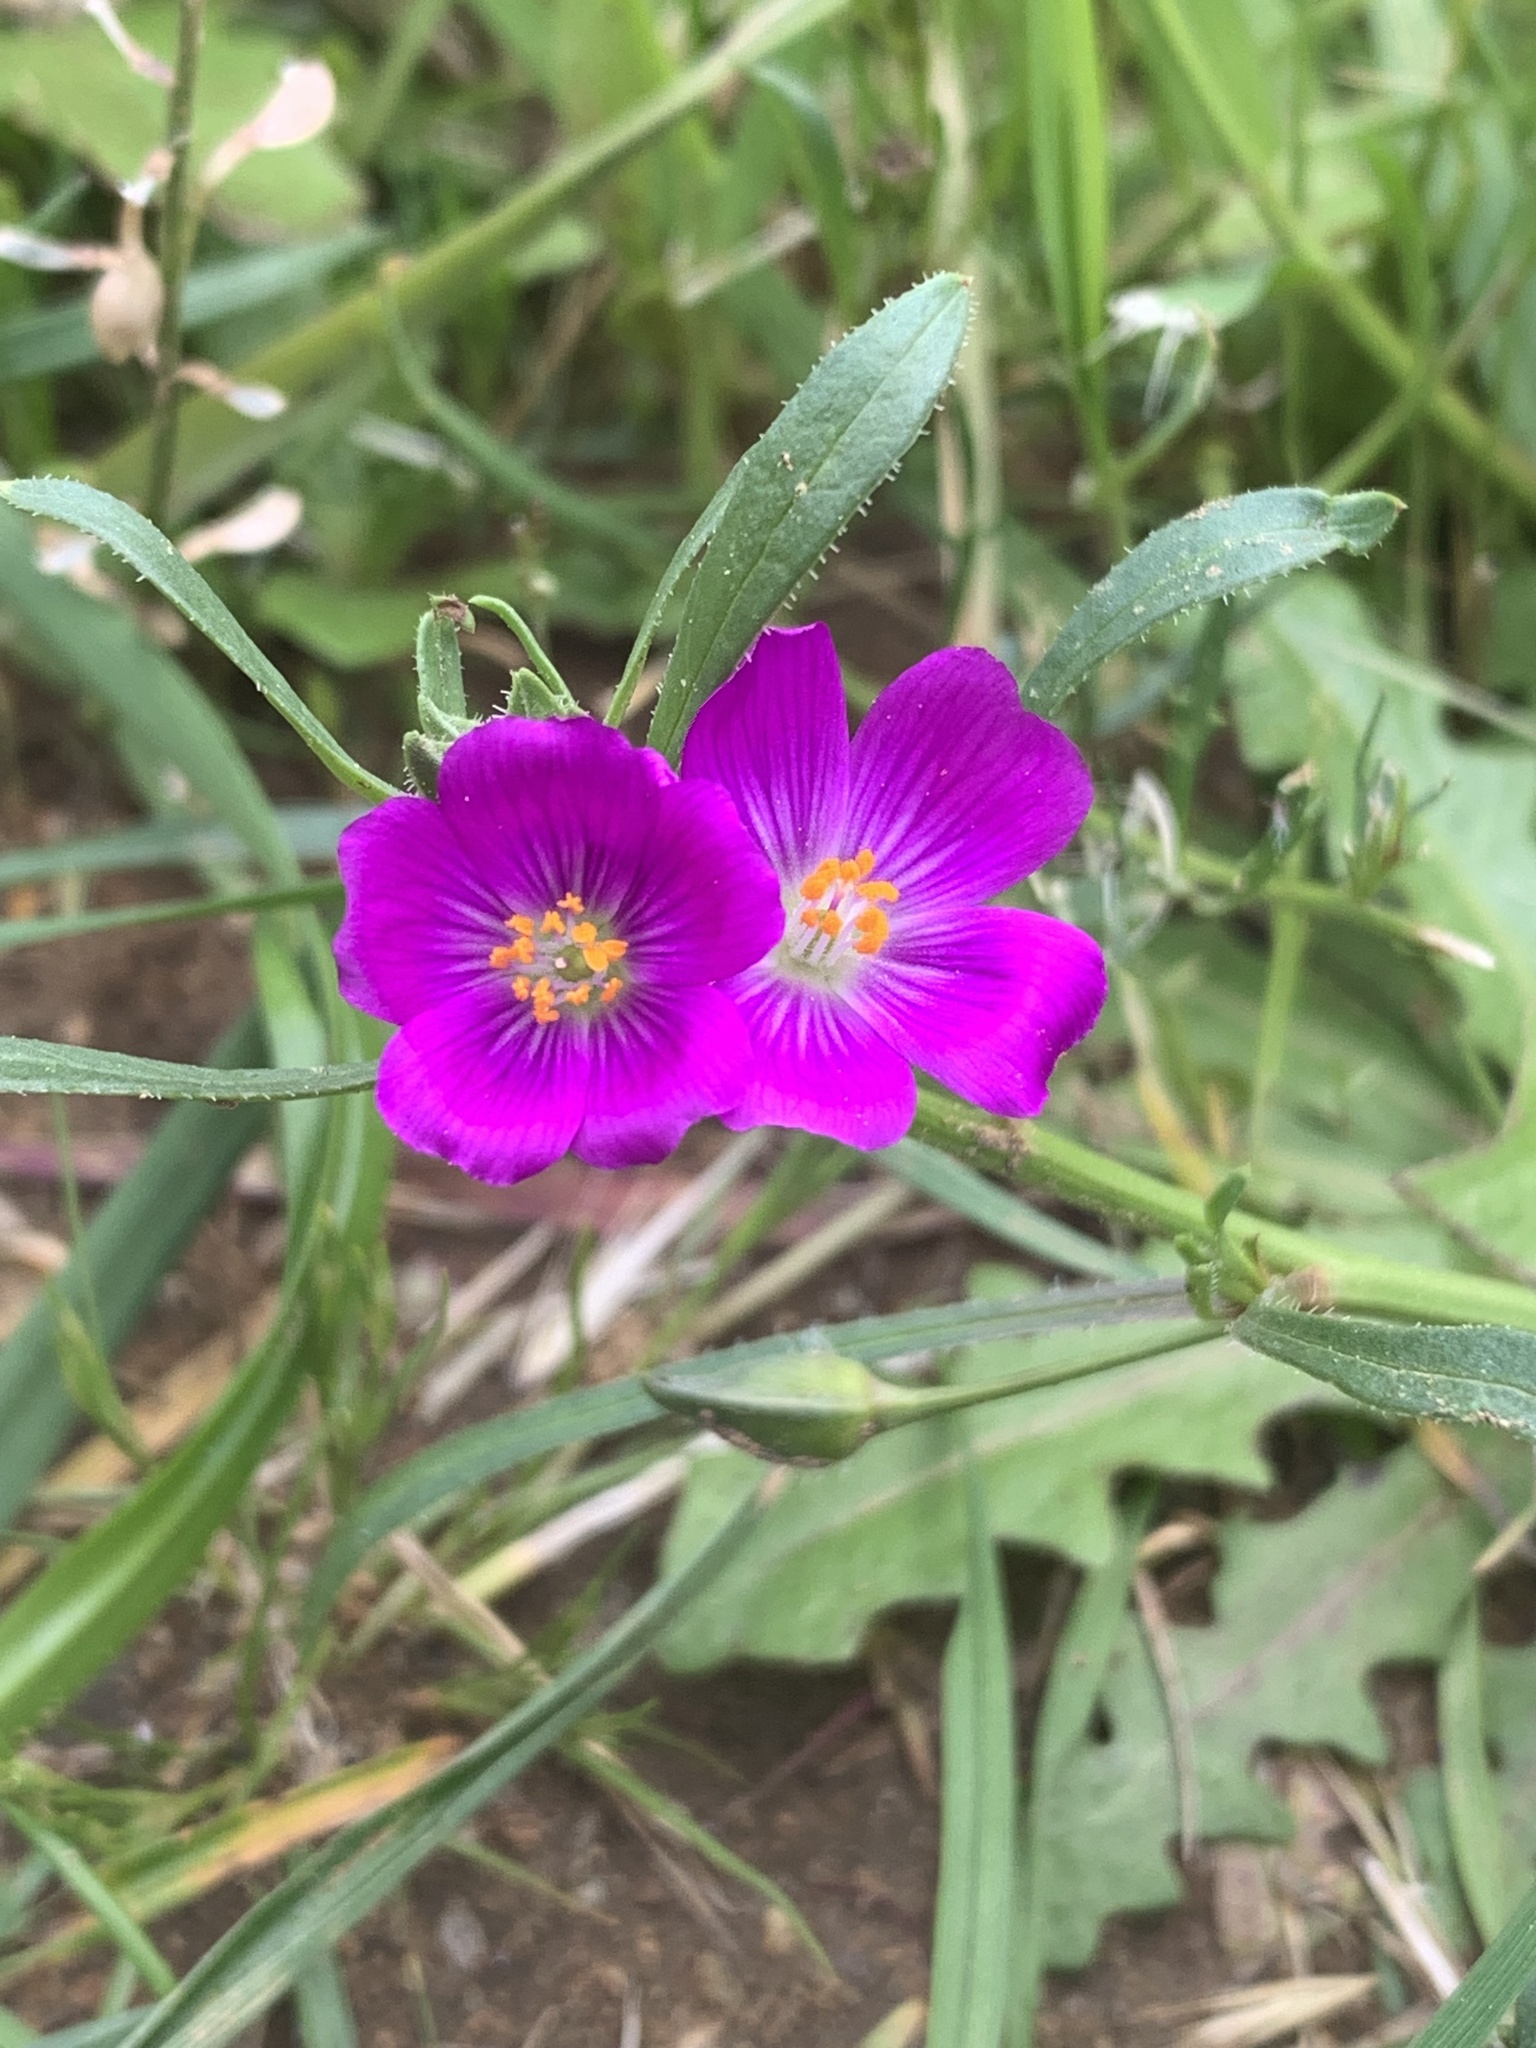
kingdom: Plantae
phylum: Tracheophyta
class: Magnoliopsida
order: Caryophyllales
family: Montiaceae
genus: Calandrinia
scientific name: Calandrinia menziesii
